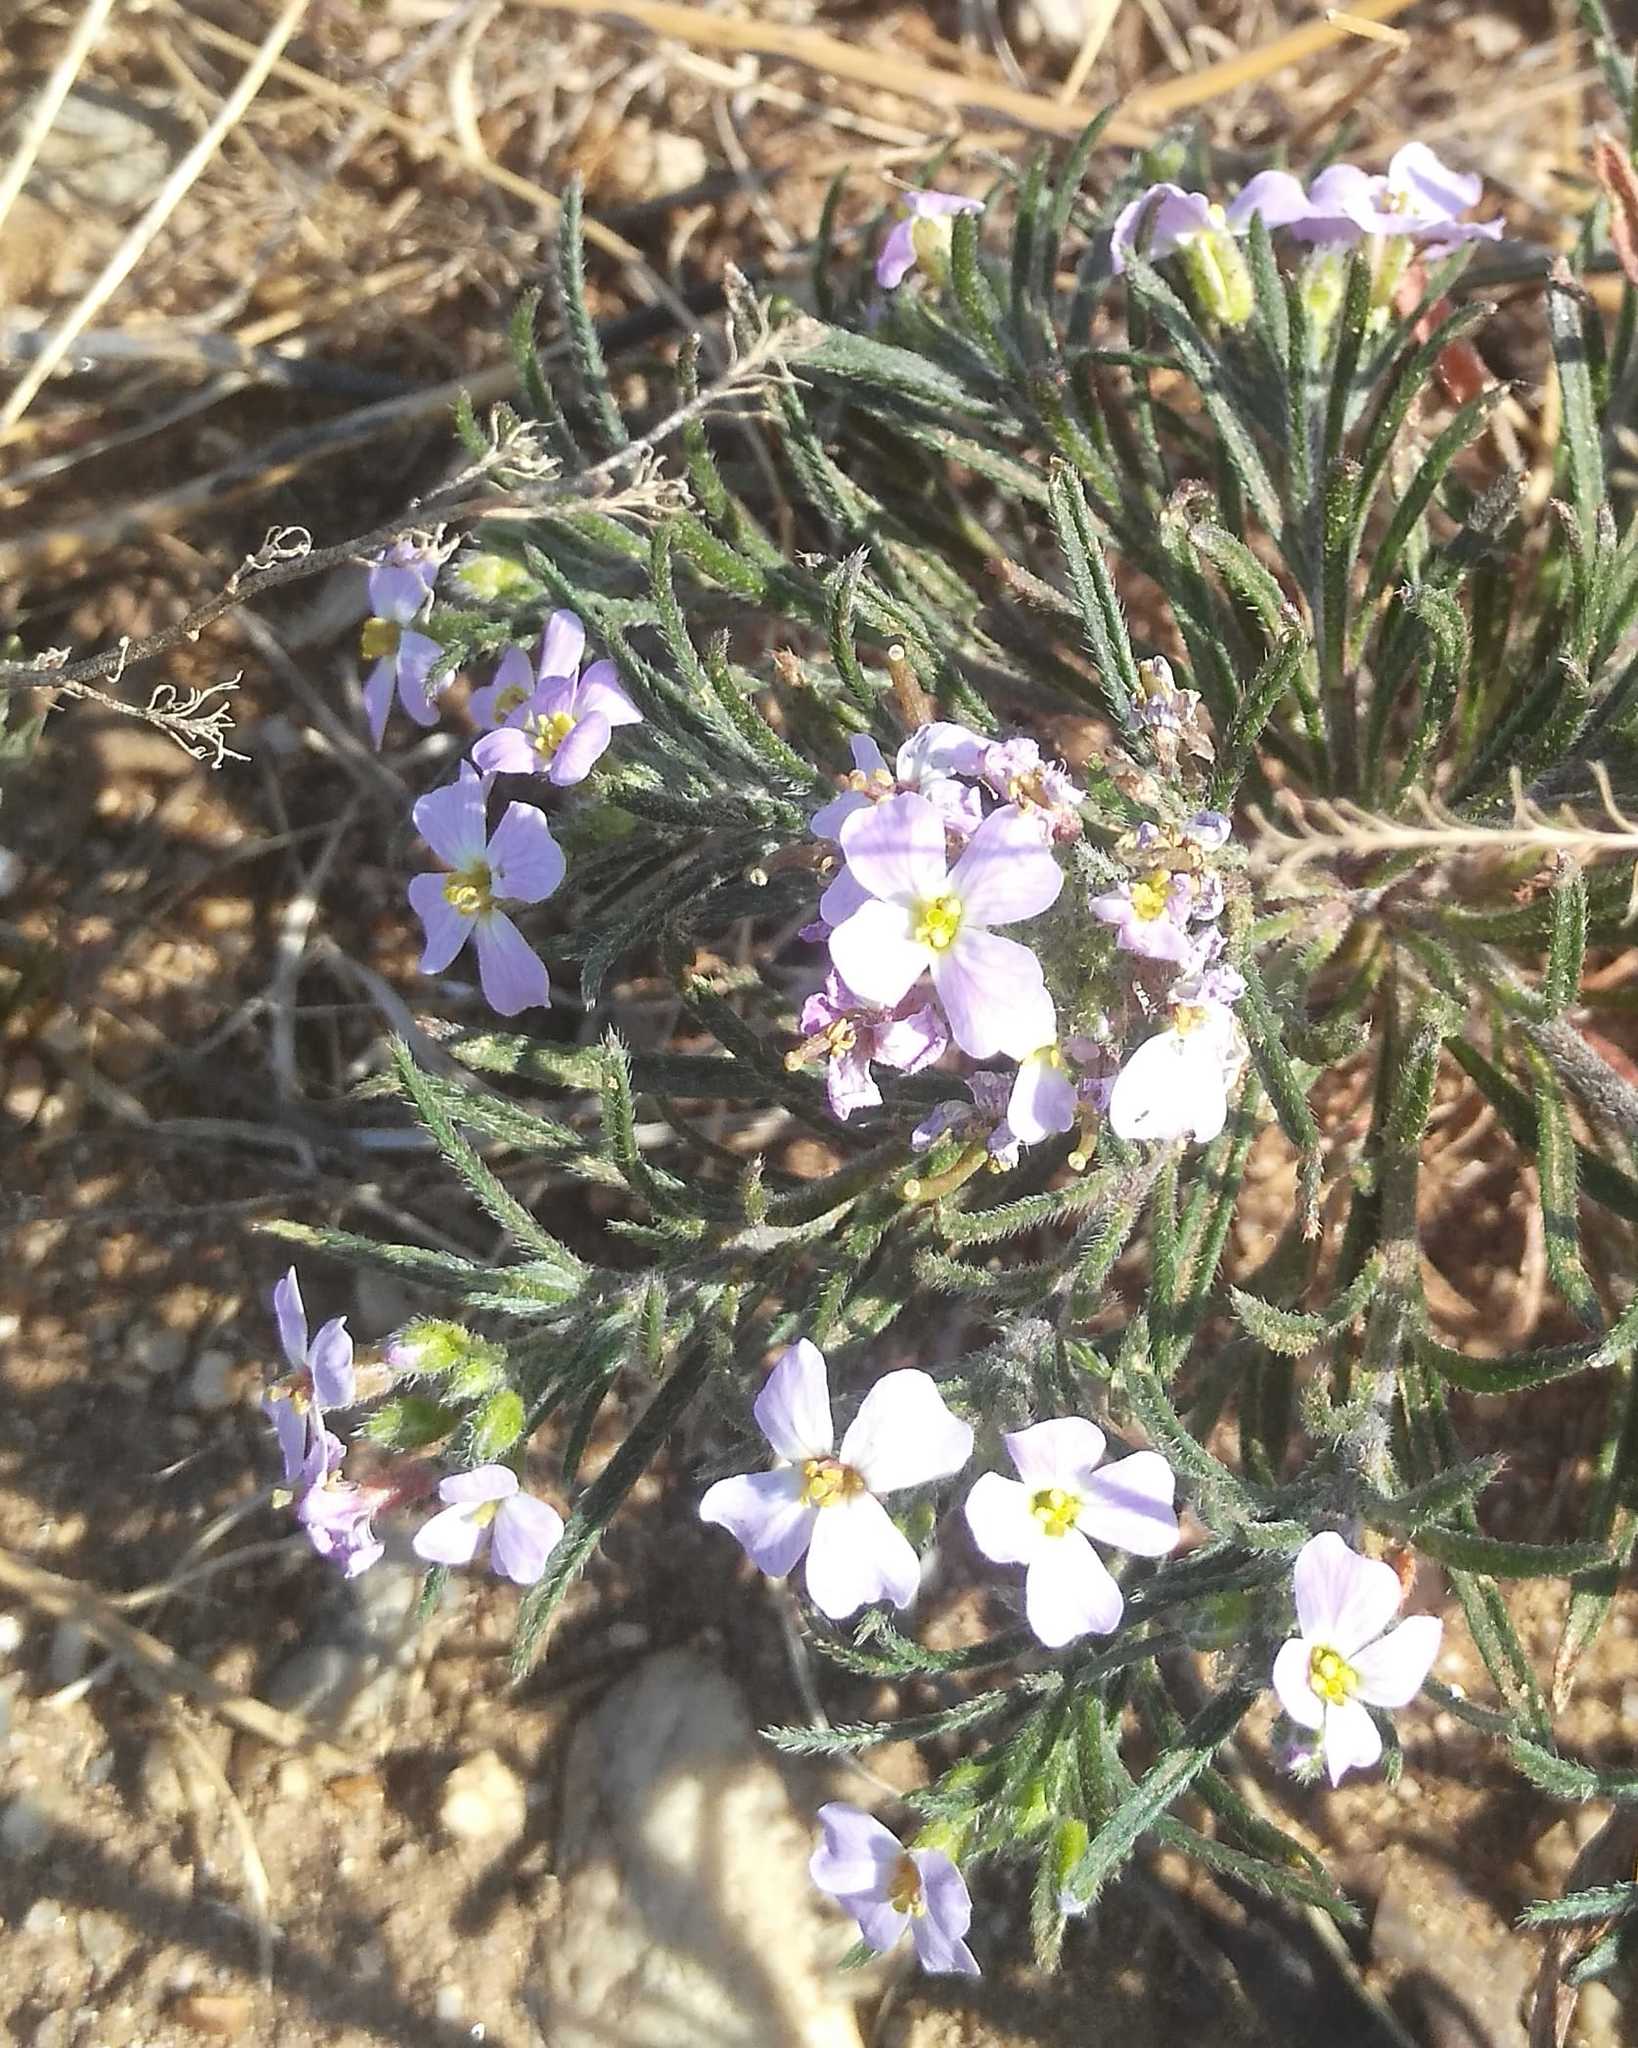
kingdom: Plantae
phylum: Tracheophyta
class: Magnoliopsida
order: Brassicales
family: Brassicaceae
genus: Dontostemon
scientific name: Dontostemon integrifolius
